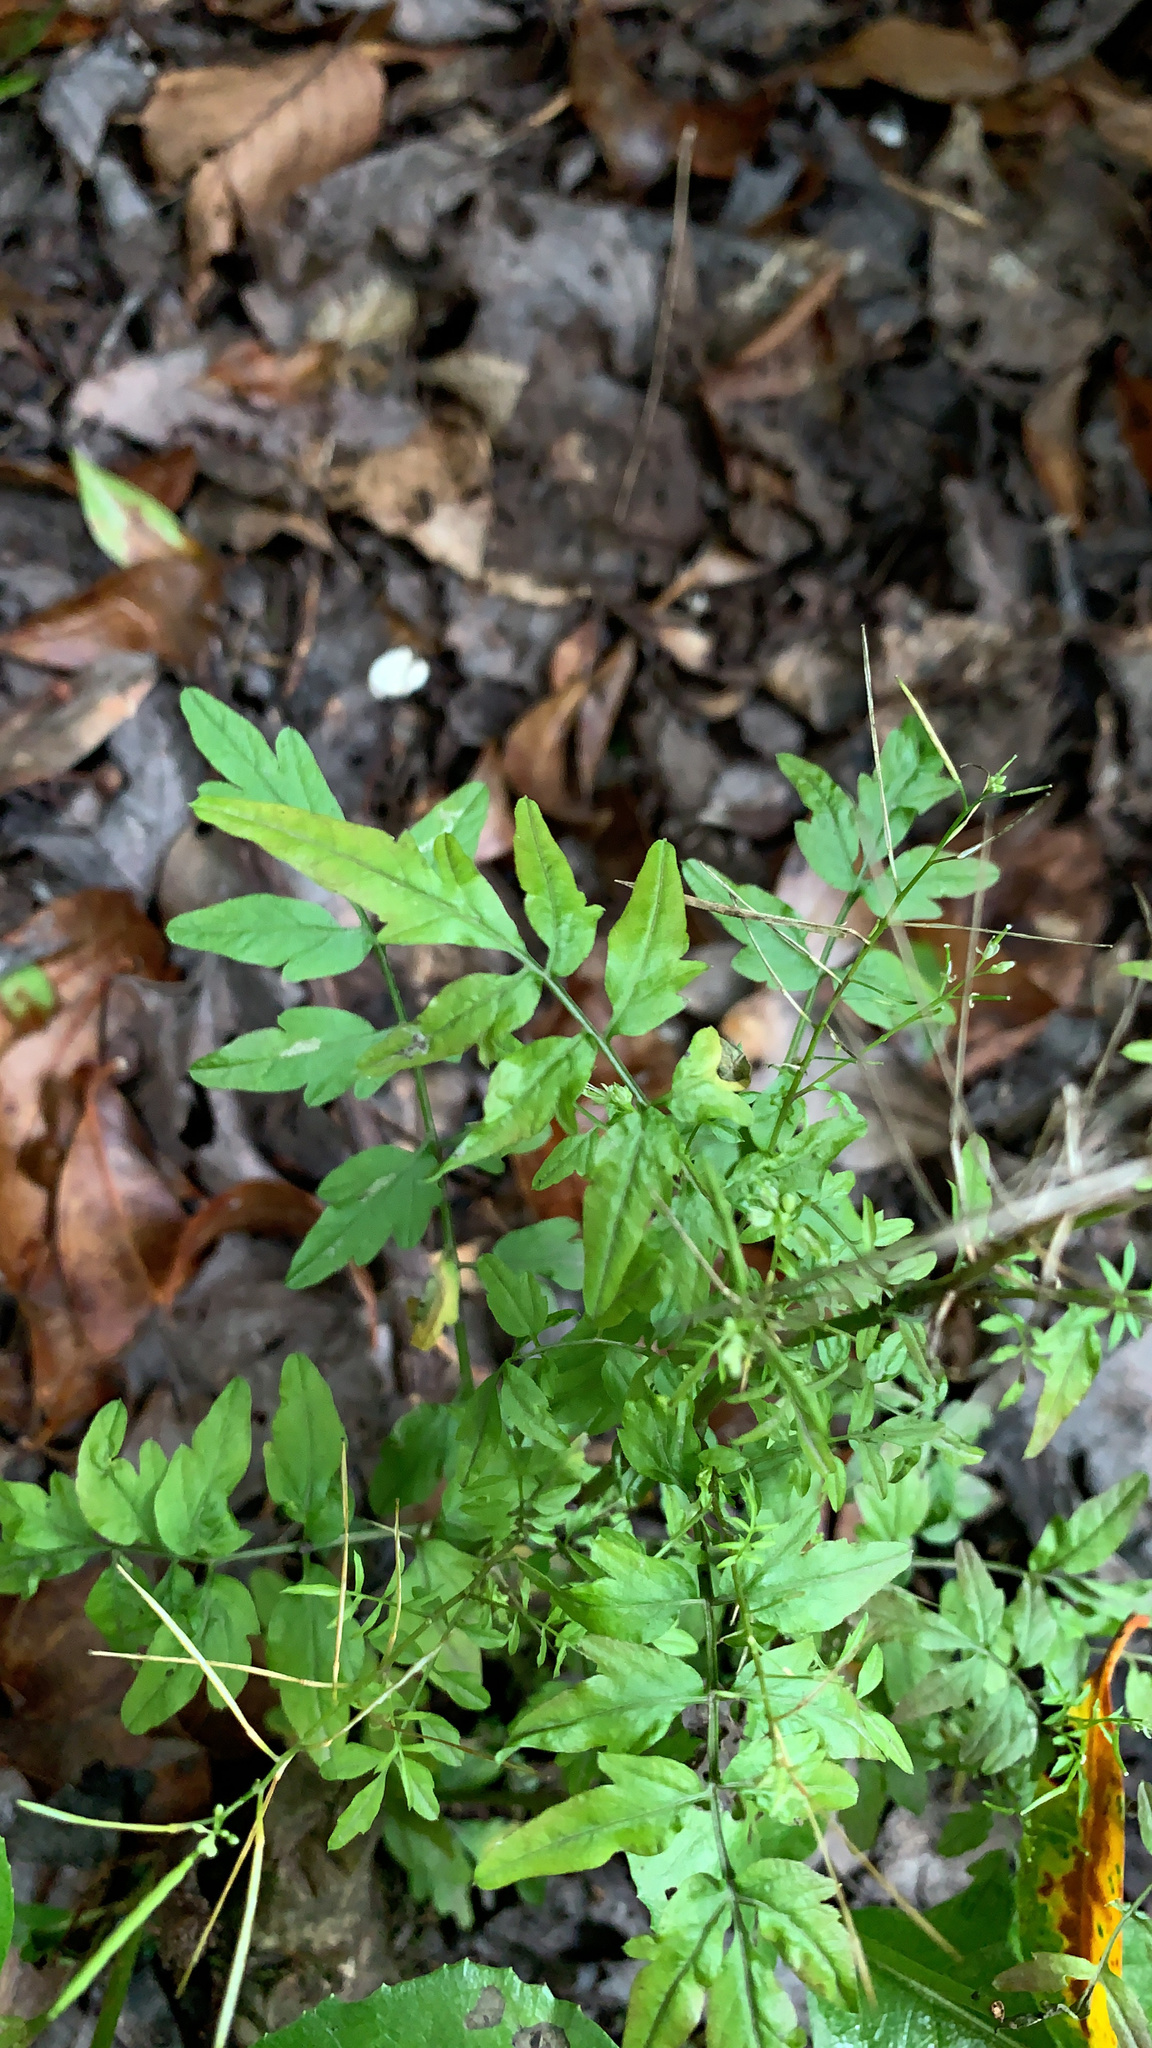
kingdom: Plantae
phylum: Tracheophyta
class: Magnoliopsida
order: Brassicales
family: Brassicaceae
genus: Cardamine
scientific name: Cardamine impatiens
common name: Narrow-leaved bitter-cress
